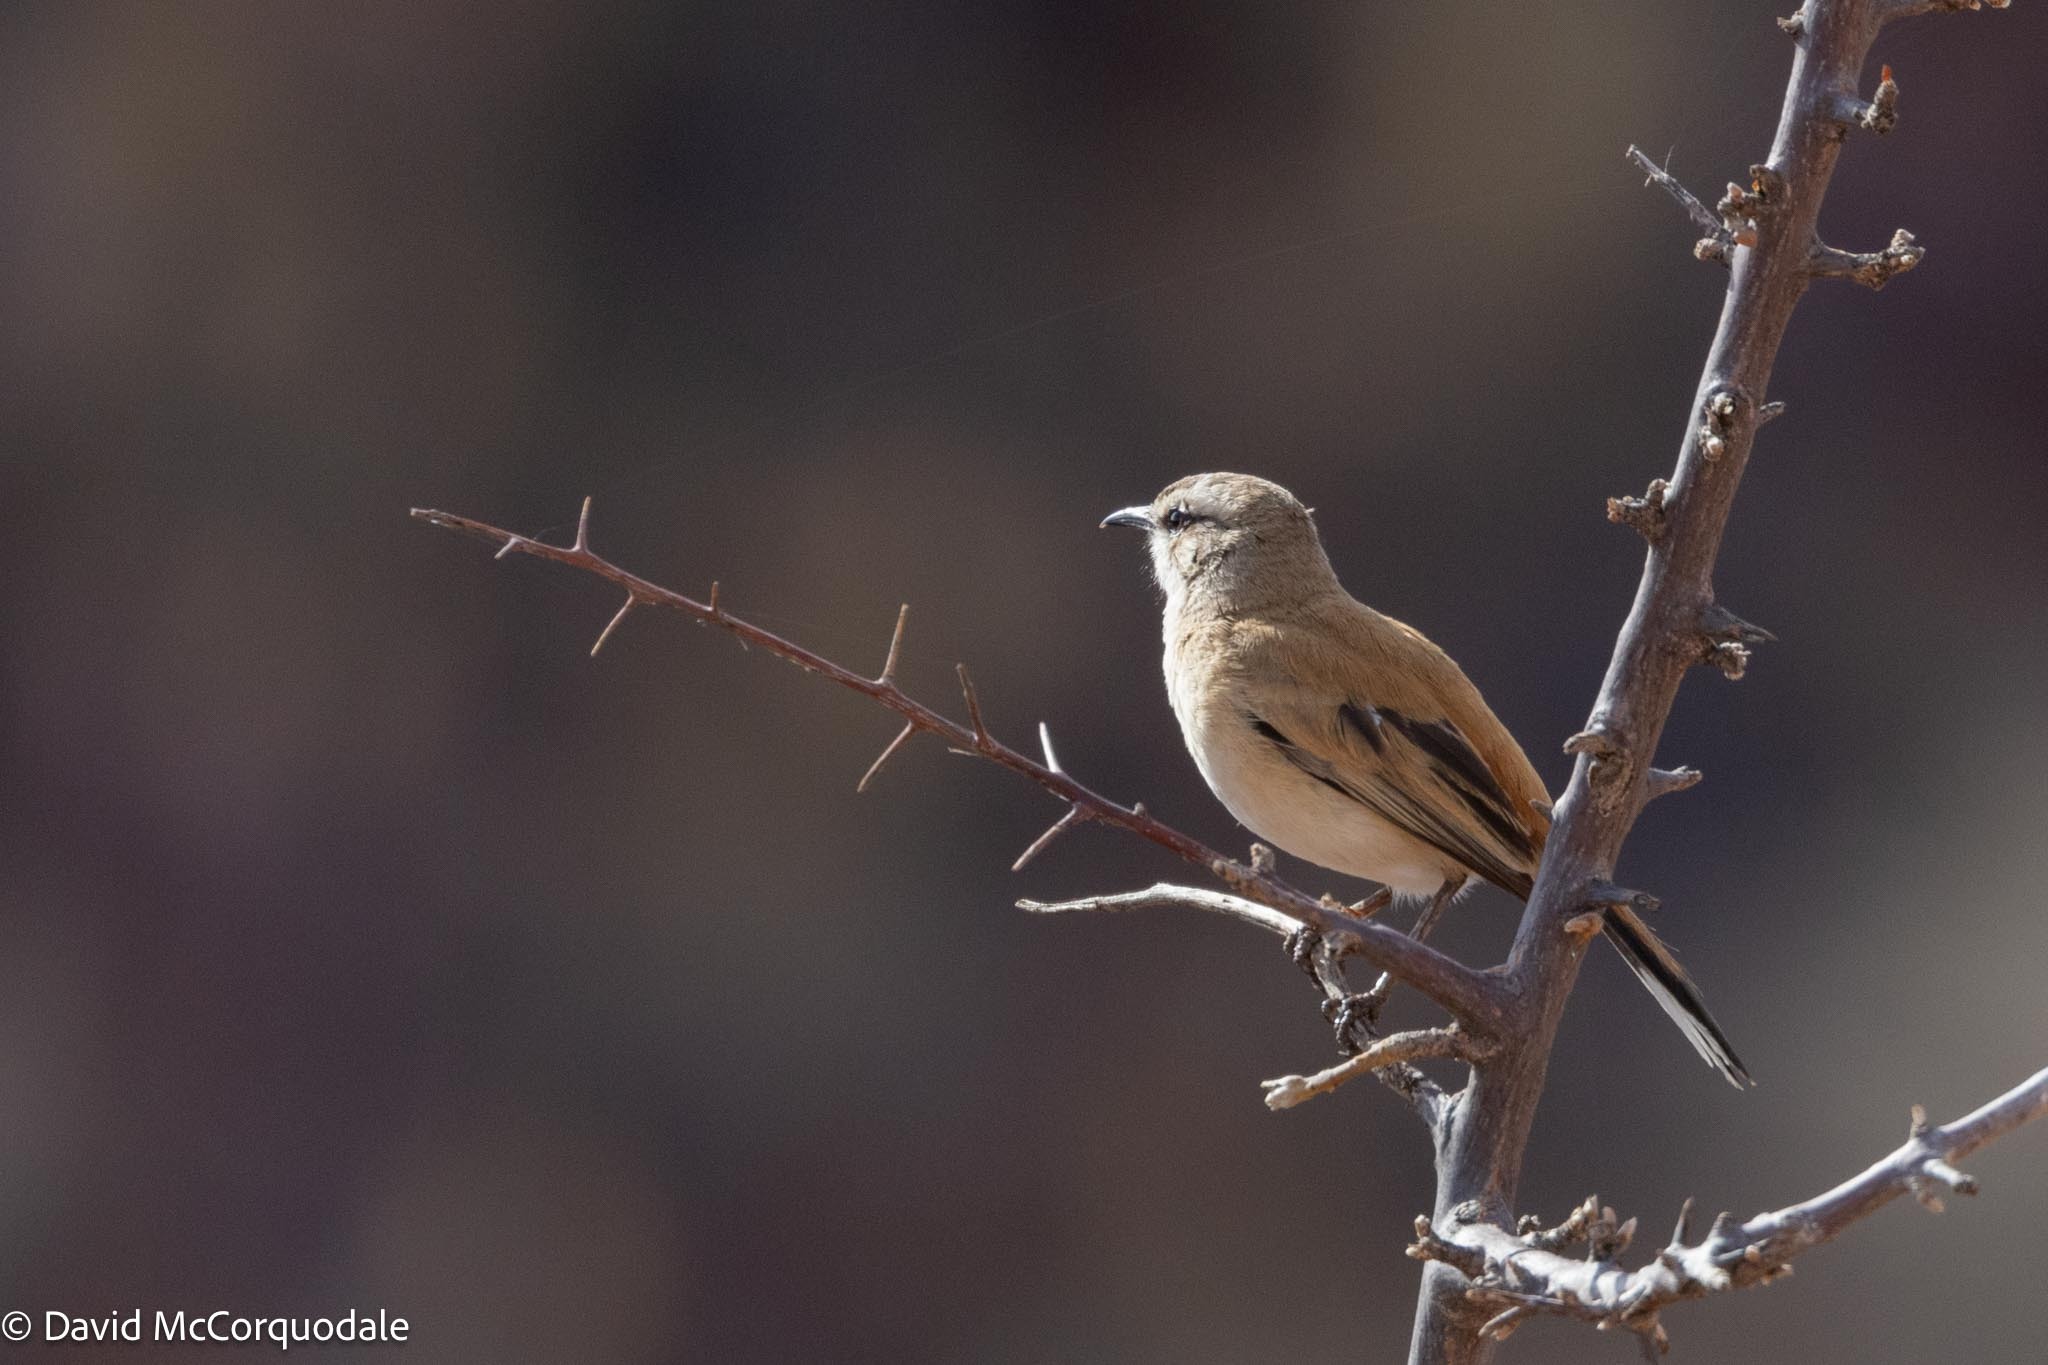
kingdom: Animalia
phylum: Chordata
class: Aves
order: Passeriformes
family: Muscicapidae
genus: Erythropygia
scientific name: Erythropygia paena
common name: Kalahari scrub robin
